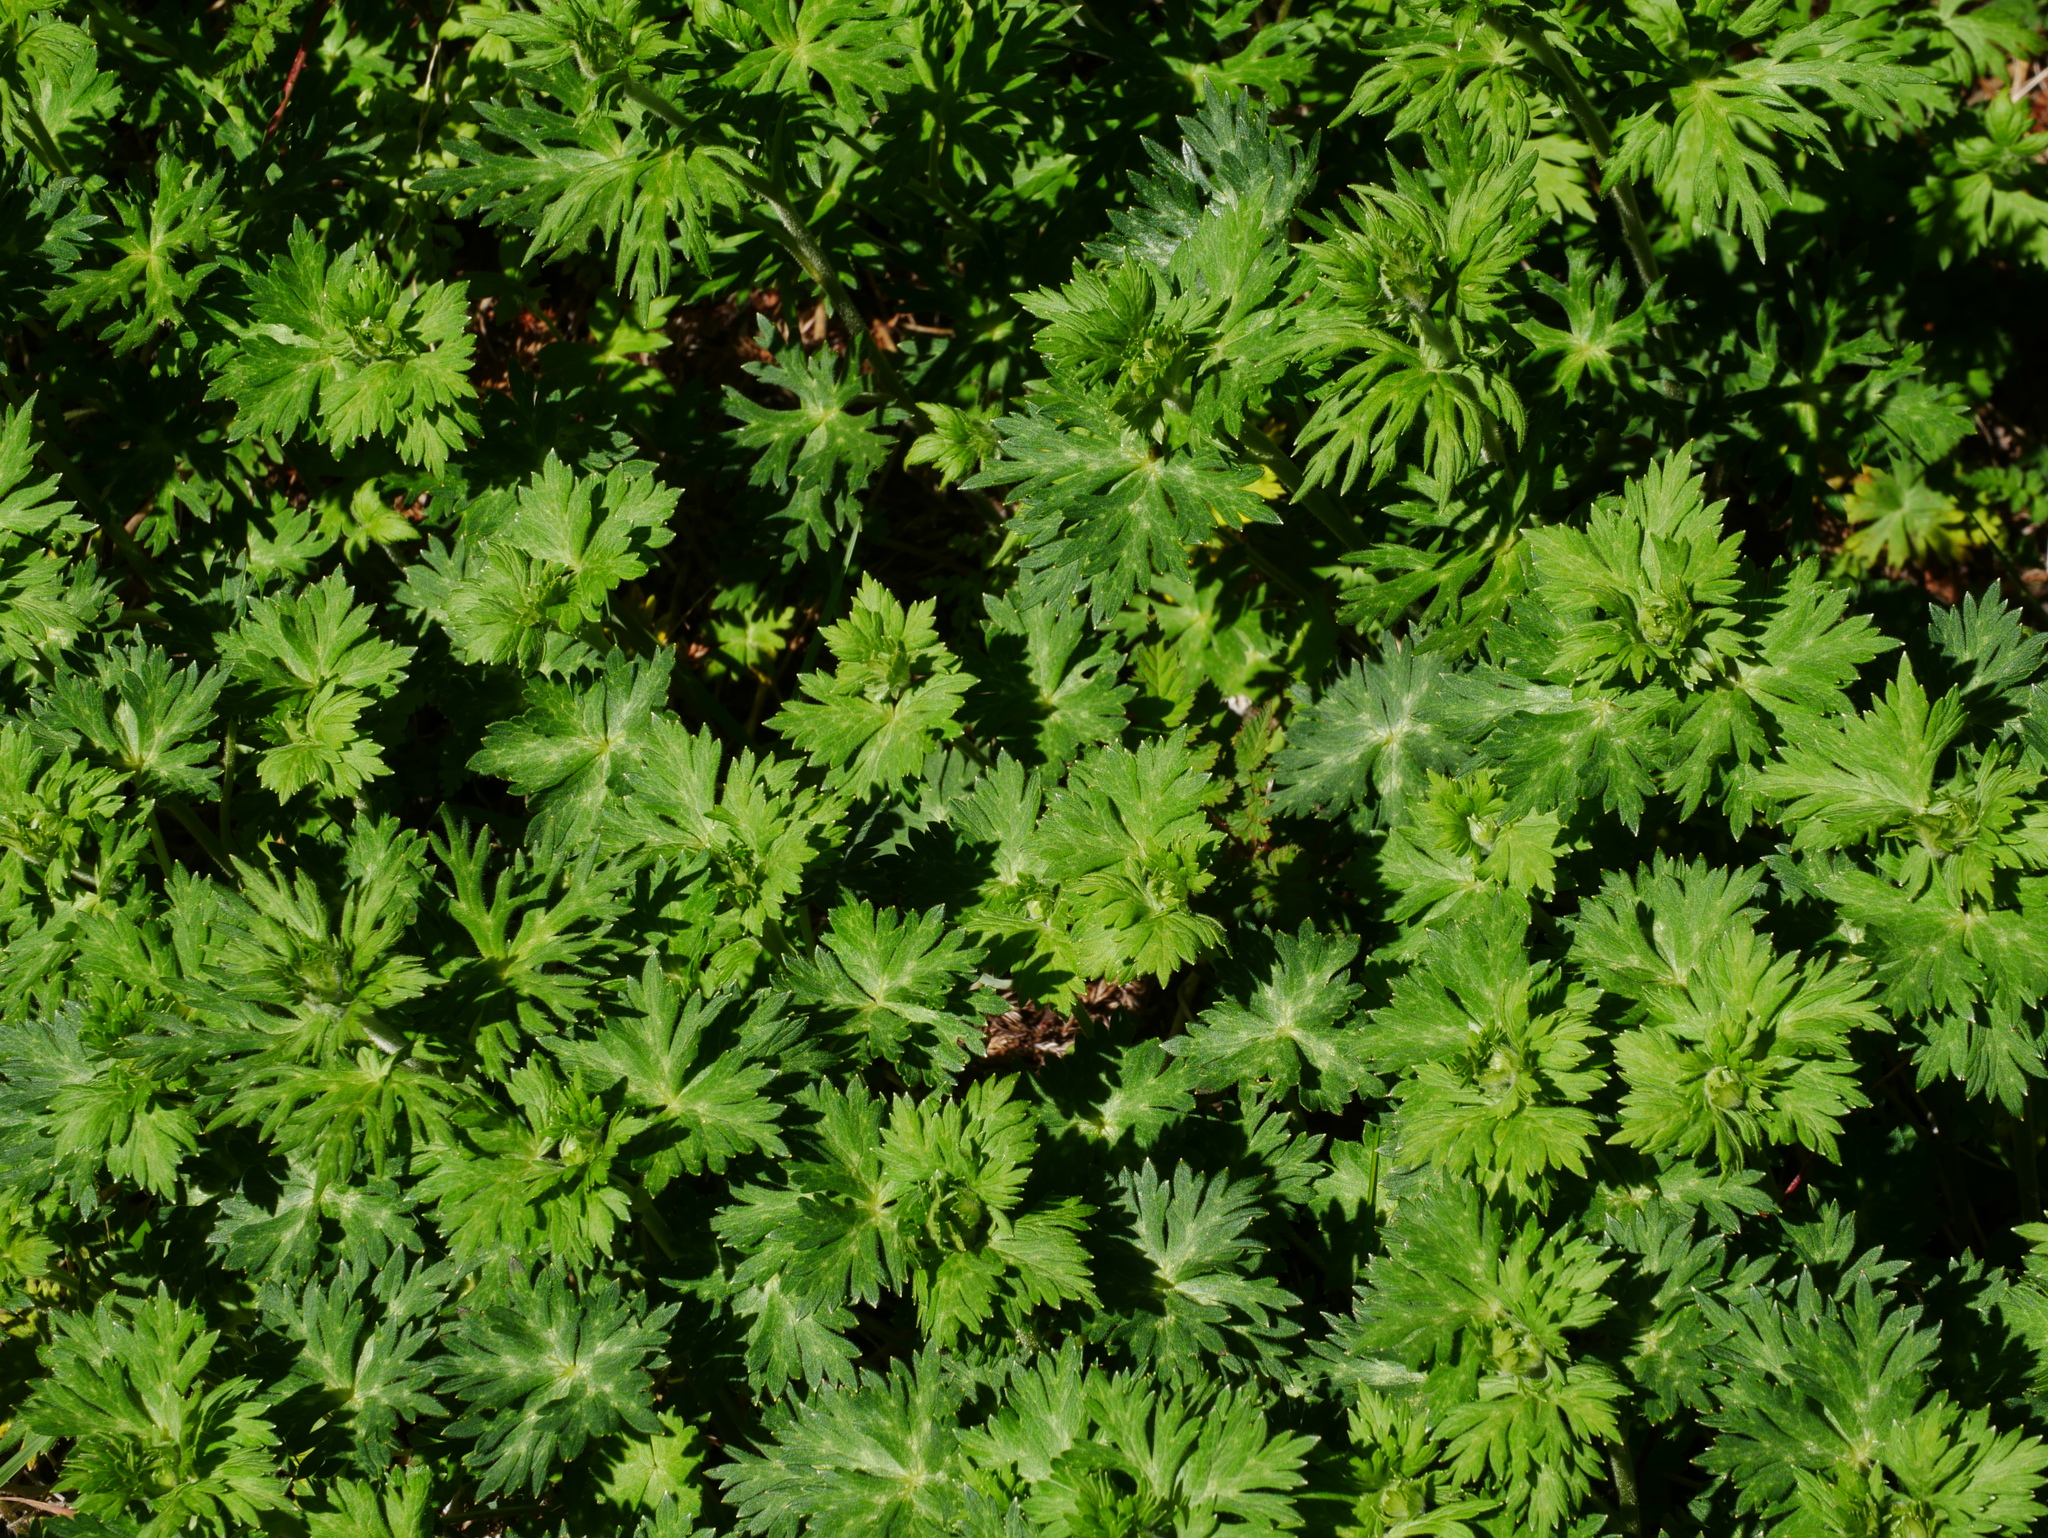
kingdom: Plantae
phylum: Tracheophyta
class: Magnoliopsida
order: Ranunculales
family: Ranunculaceae
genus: Aconitum
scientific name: Aconitum fukutomei
